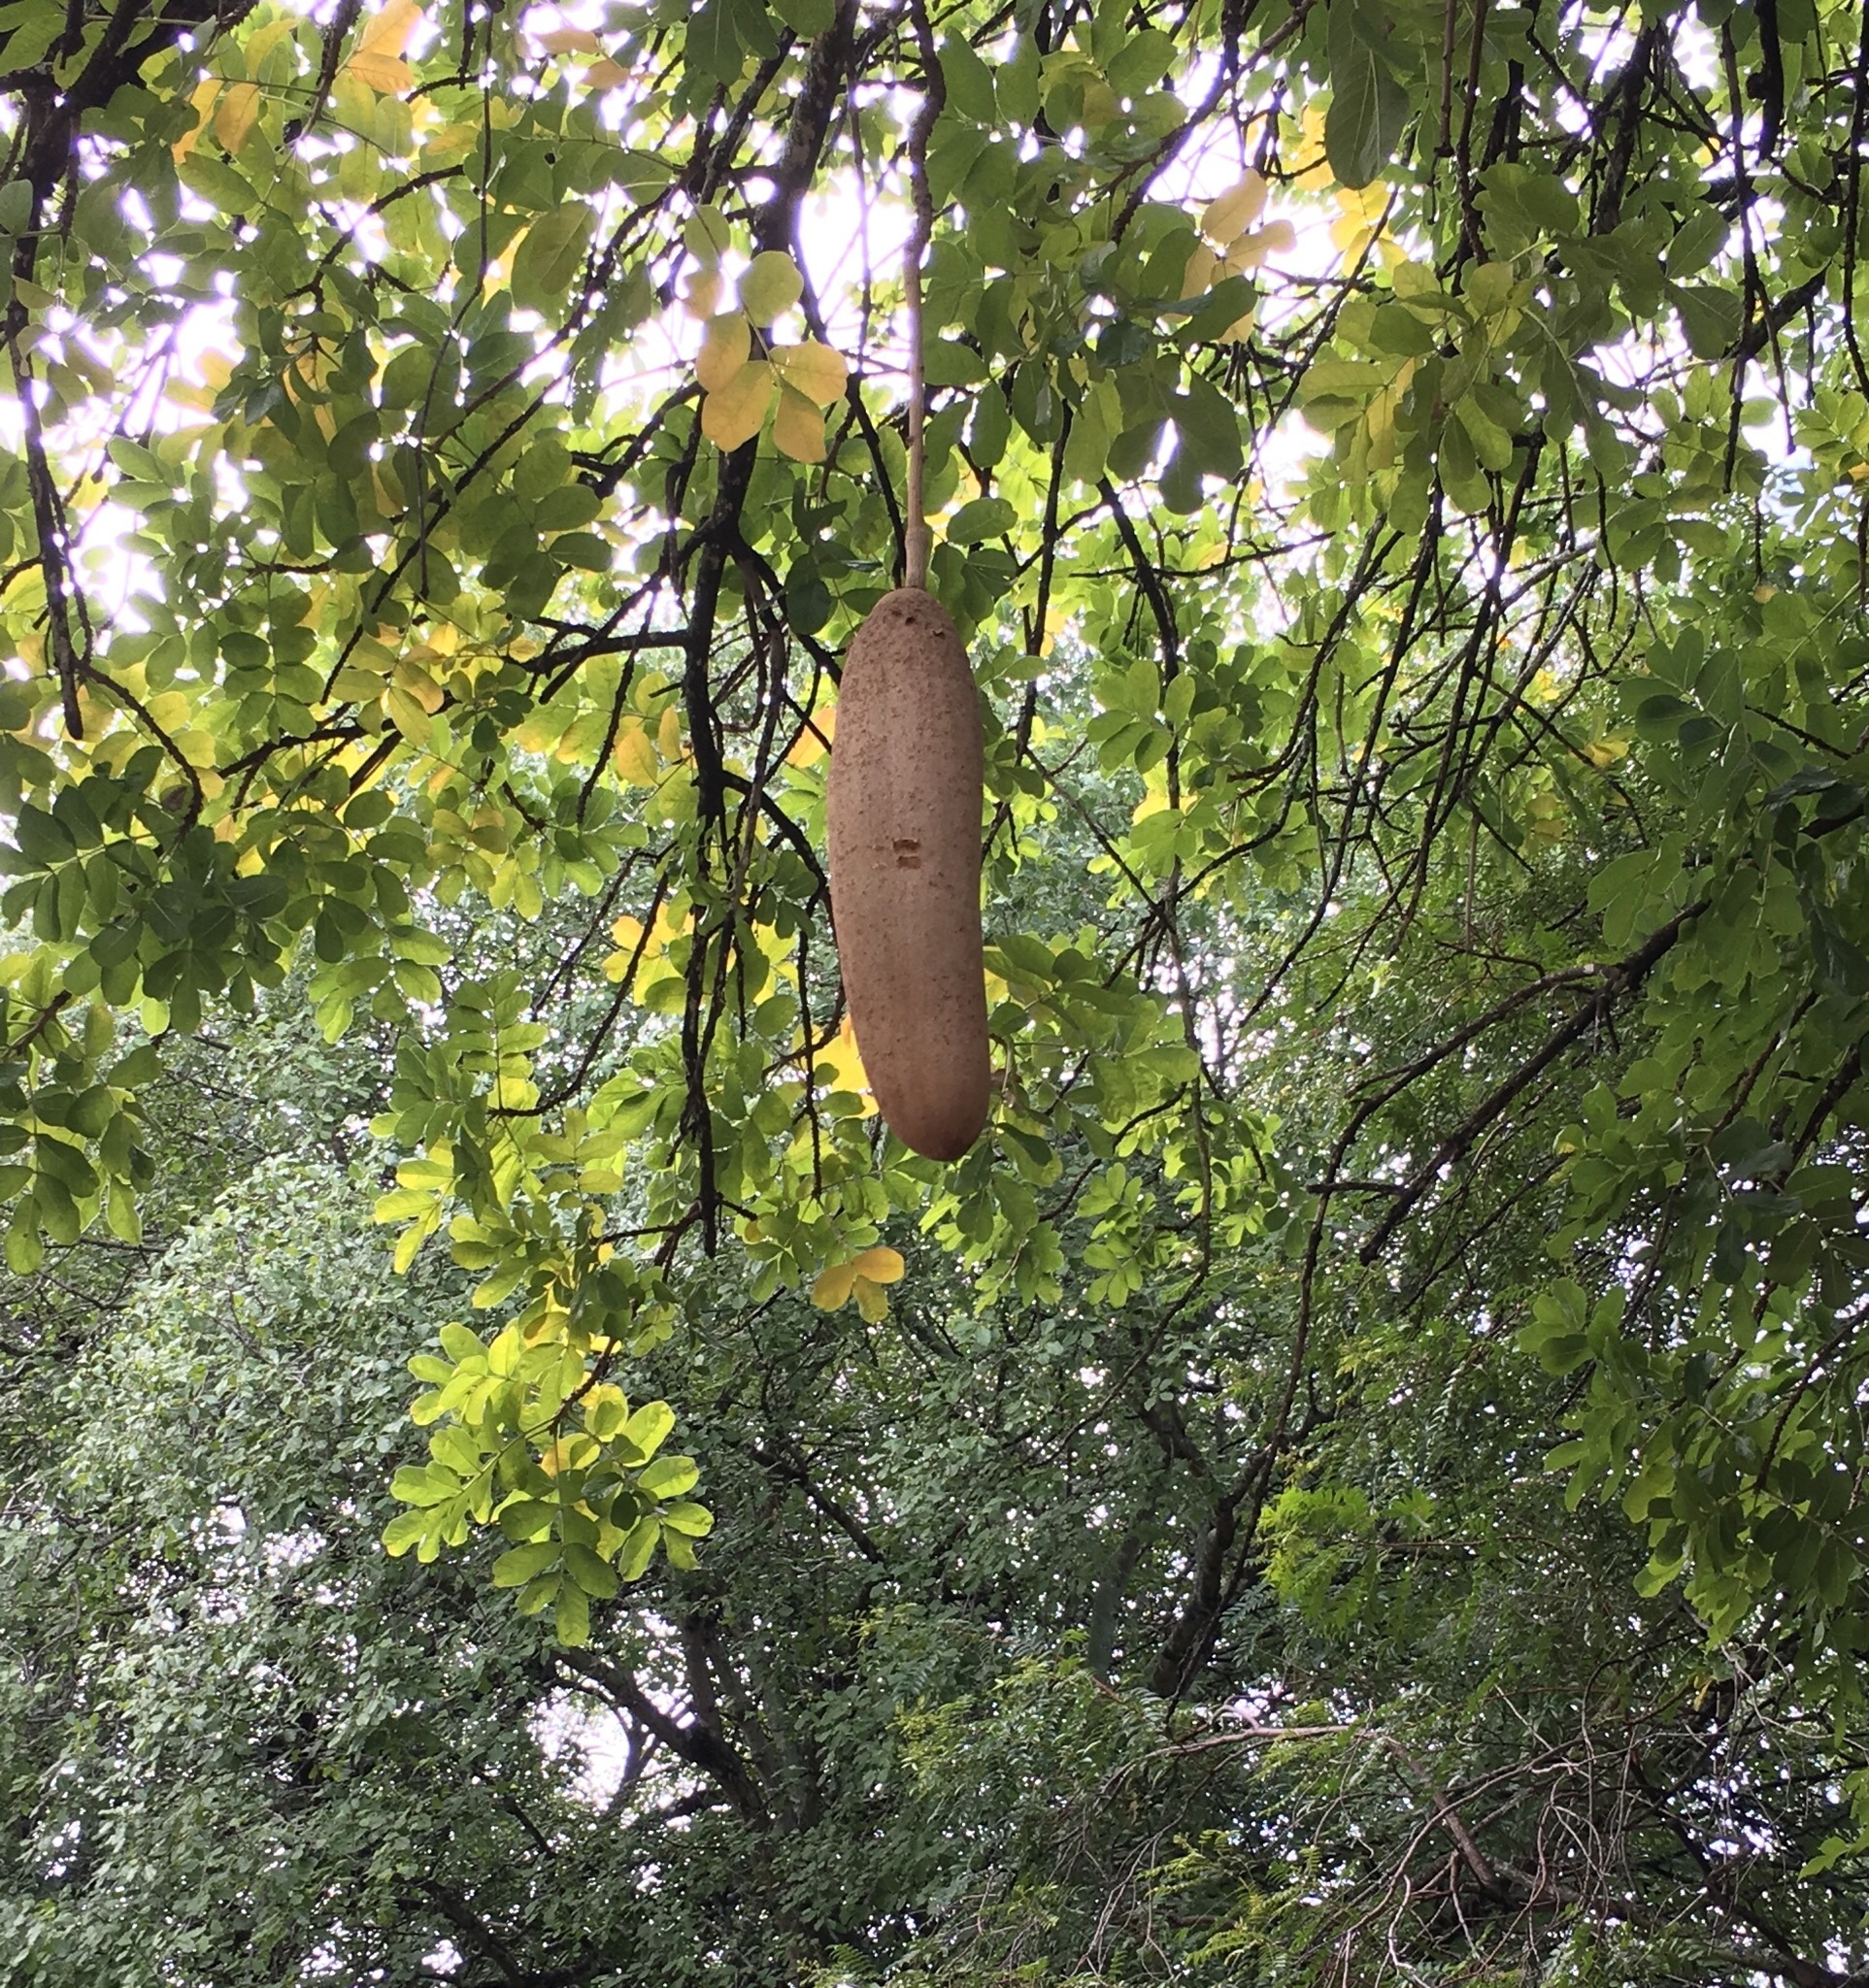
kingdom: Plantae
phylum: Tracheophyta
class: Magnoliopsida
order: Lamiales
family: Bignoniaceae
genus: Kigelia
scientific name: Kigelia africana
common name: Sausage tree
